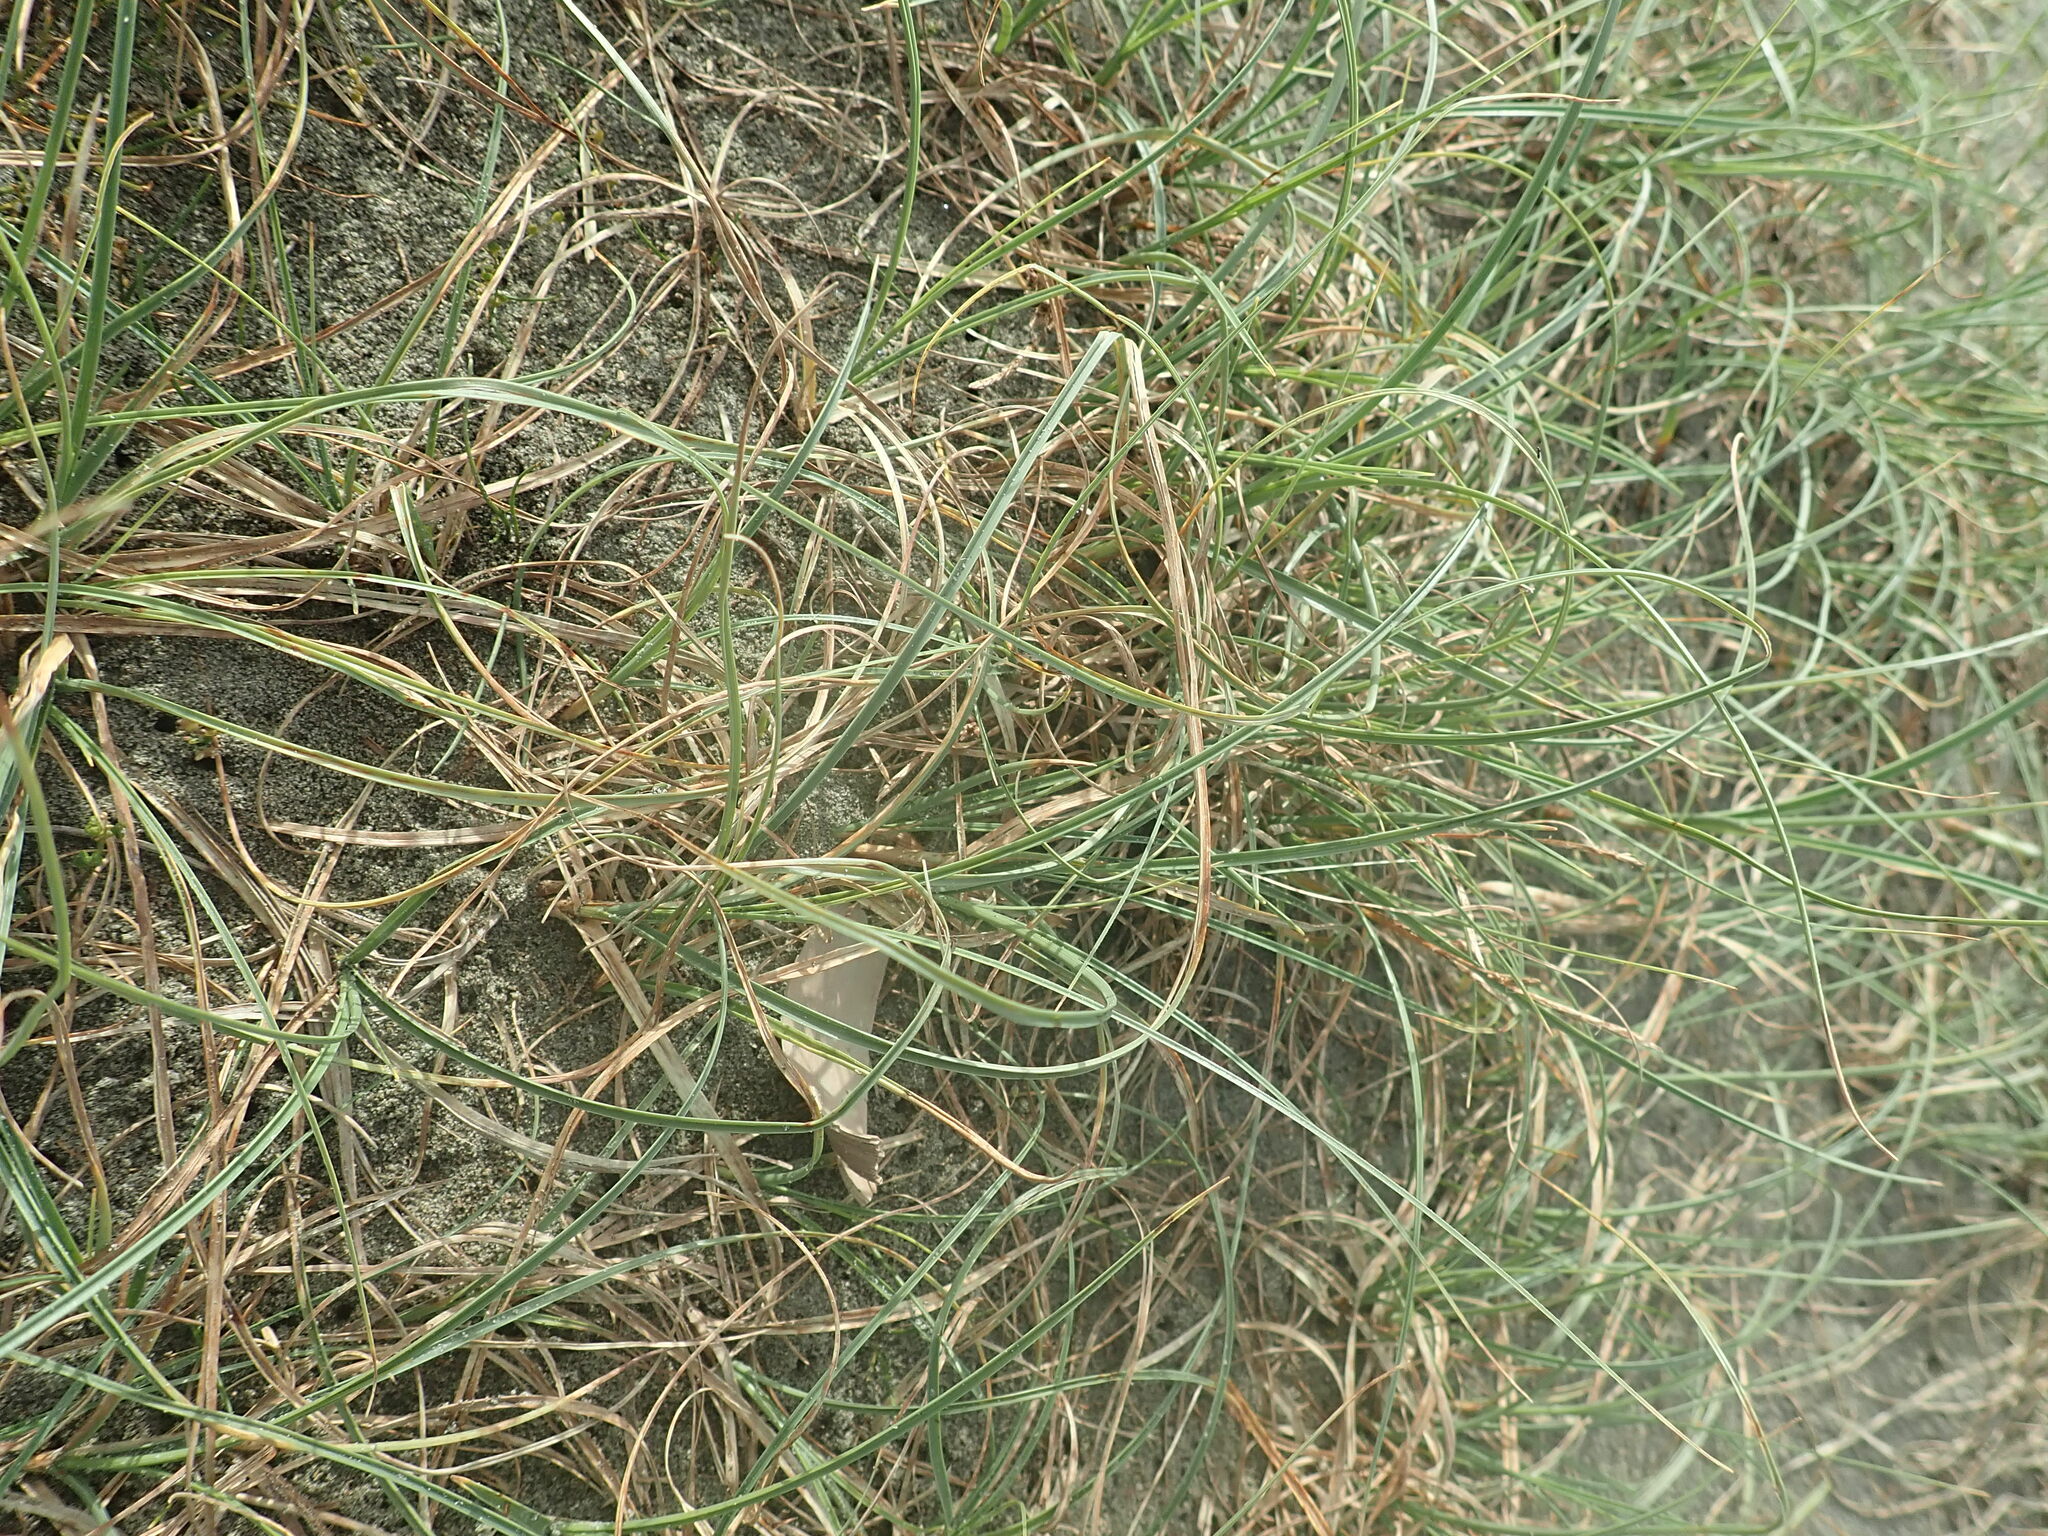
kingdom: Plantae
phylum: Tracheophyta
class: Liliopsida
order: Poales
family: Cyperaceae
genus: Carex
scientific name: Carex pumila
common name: Dwarf sedge
